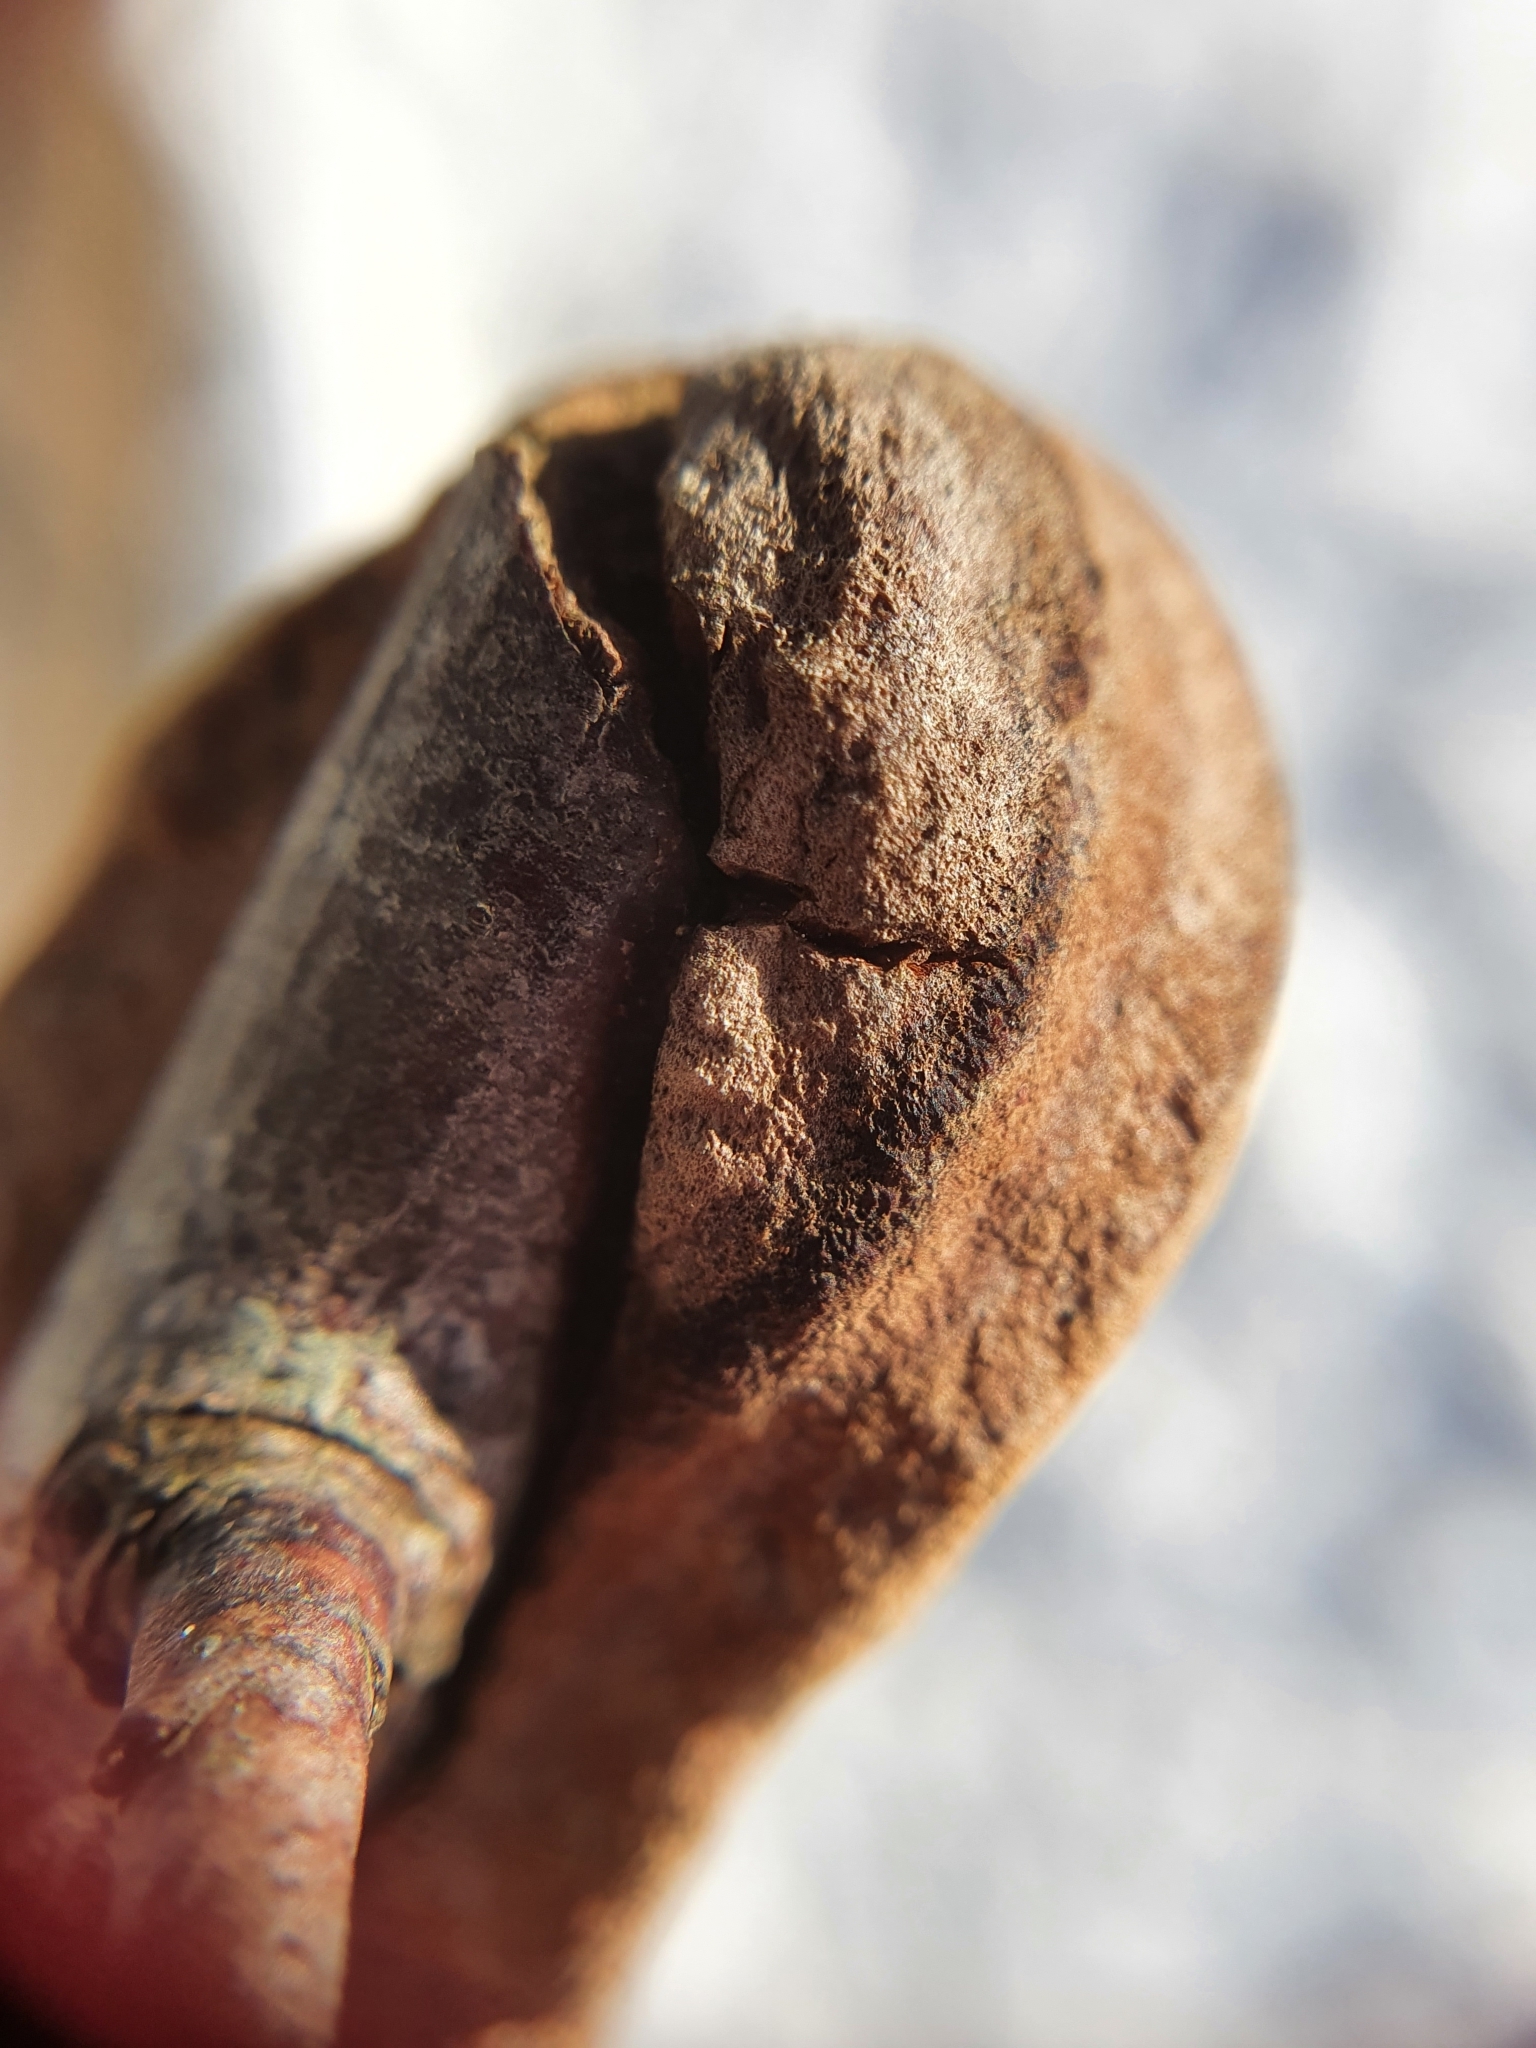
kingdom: Fungi
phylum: Basidiomycota
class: Agaricomycetes
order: Hymenochaetales
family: Hymenochaetaceae
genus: Fomitiporia
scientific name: Fomitiporia punctata
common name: Elbowpatch crust
